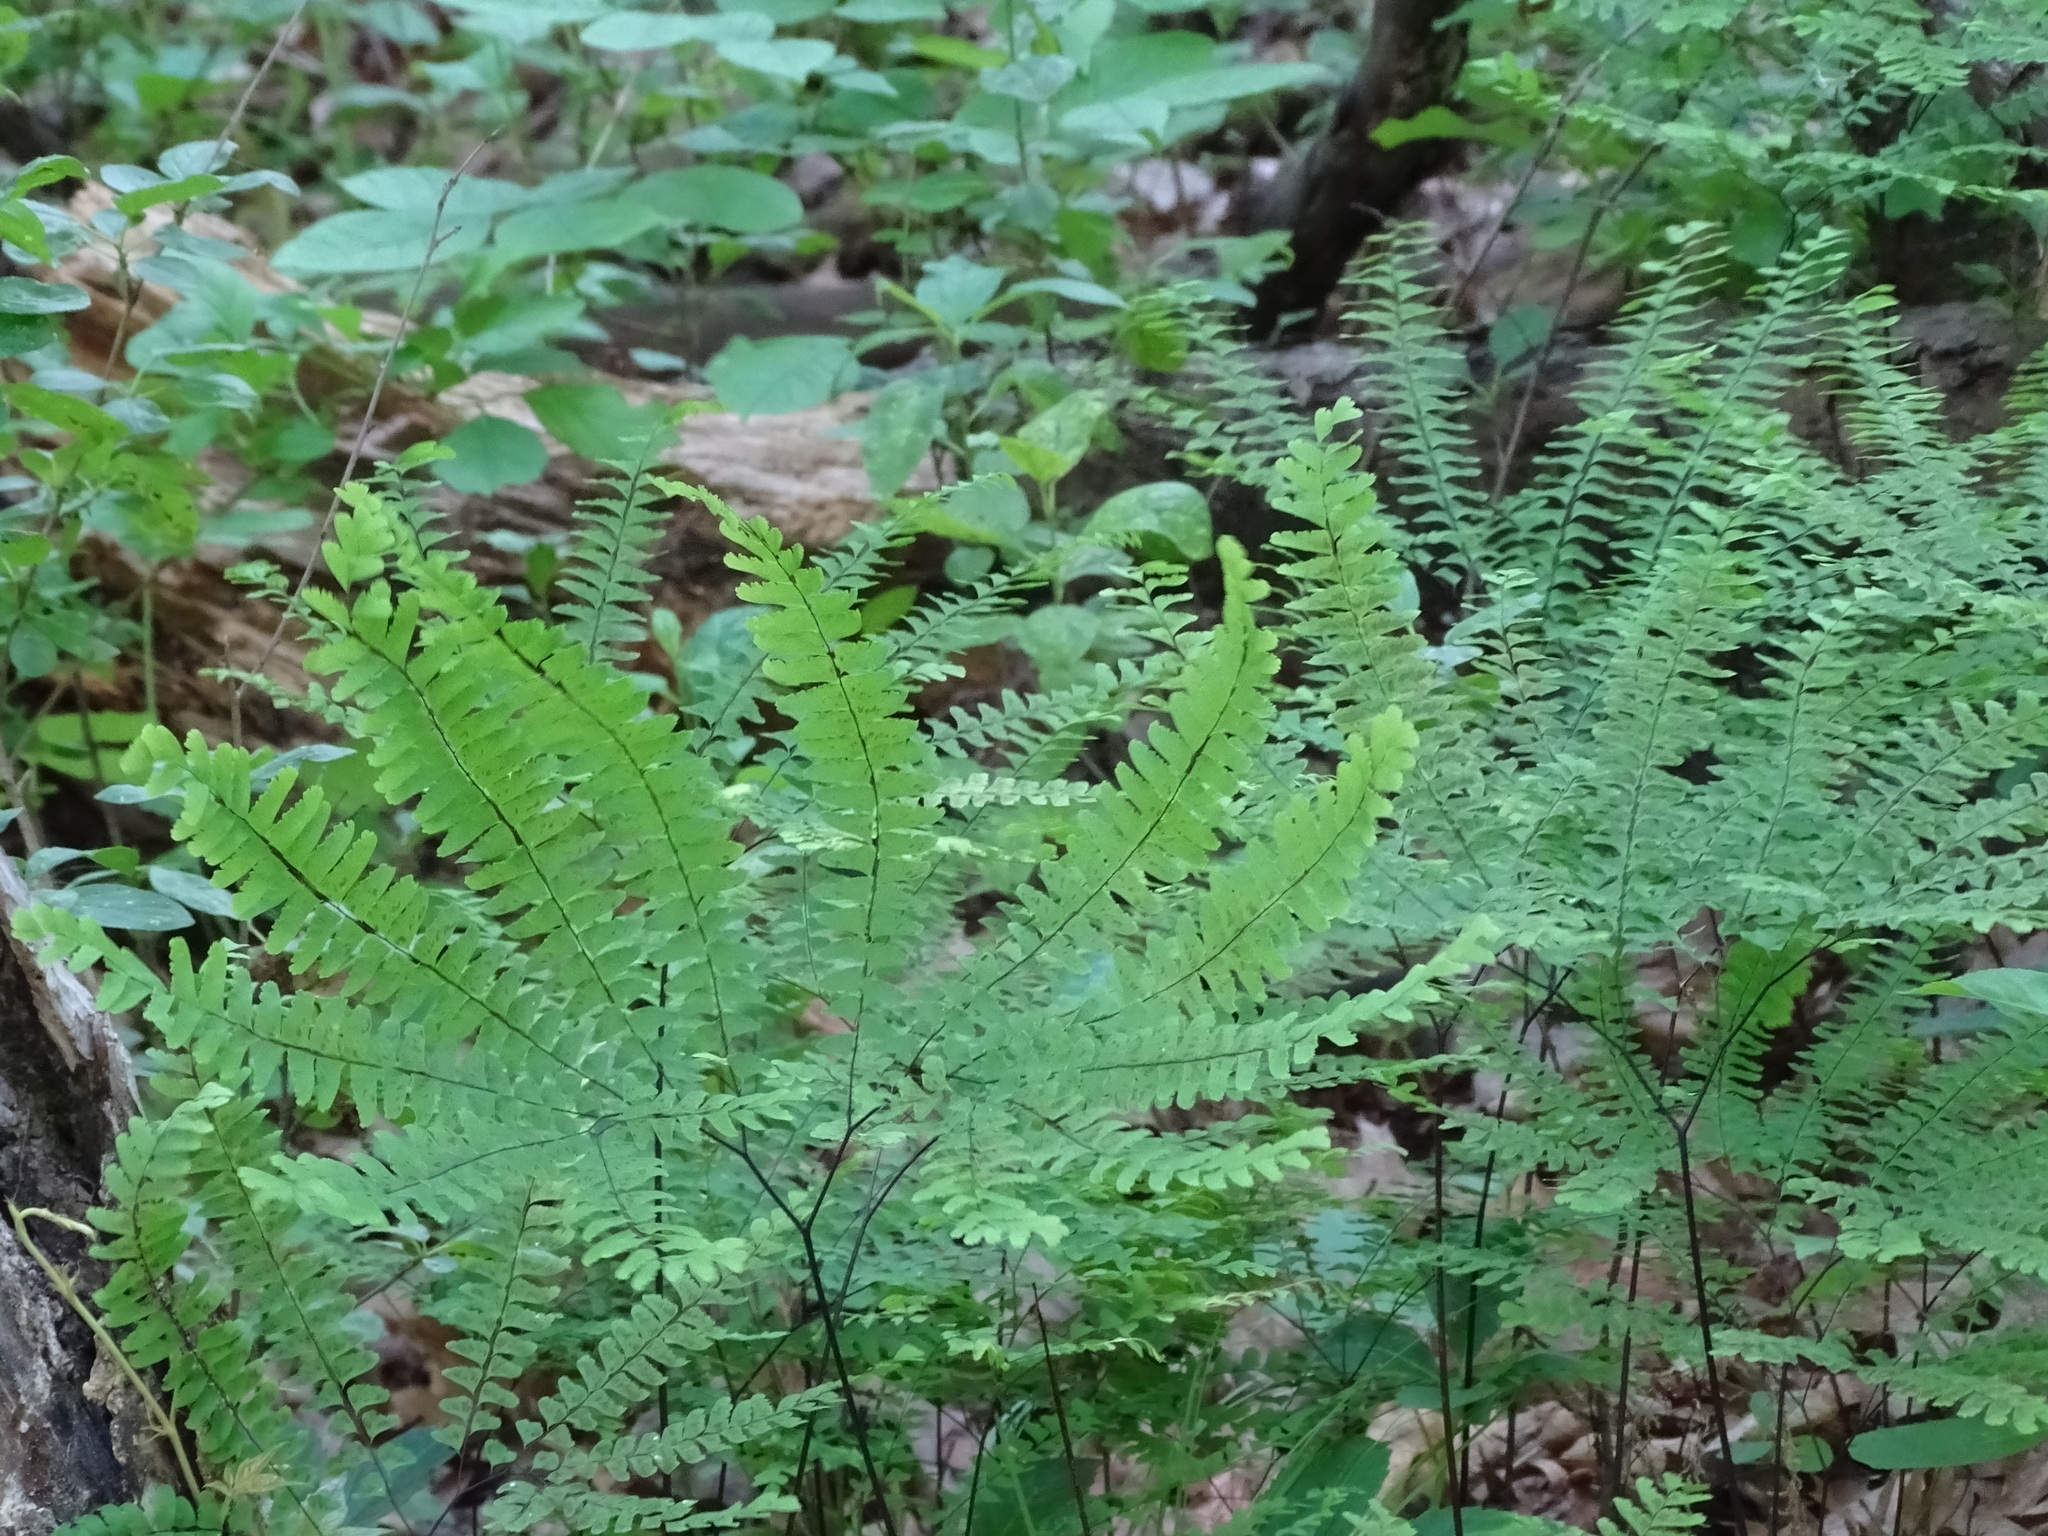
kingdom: Plantae
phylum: Tracheophyta
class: Polypodiopsida
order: Polypodiales
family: Pteridaceae
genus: Adiantum
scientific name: Adiantum pedatum
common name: Five-finger fern
